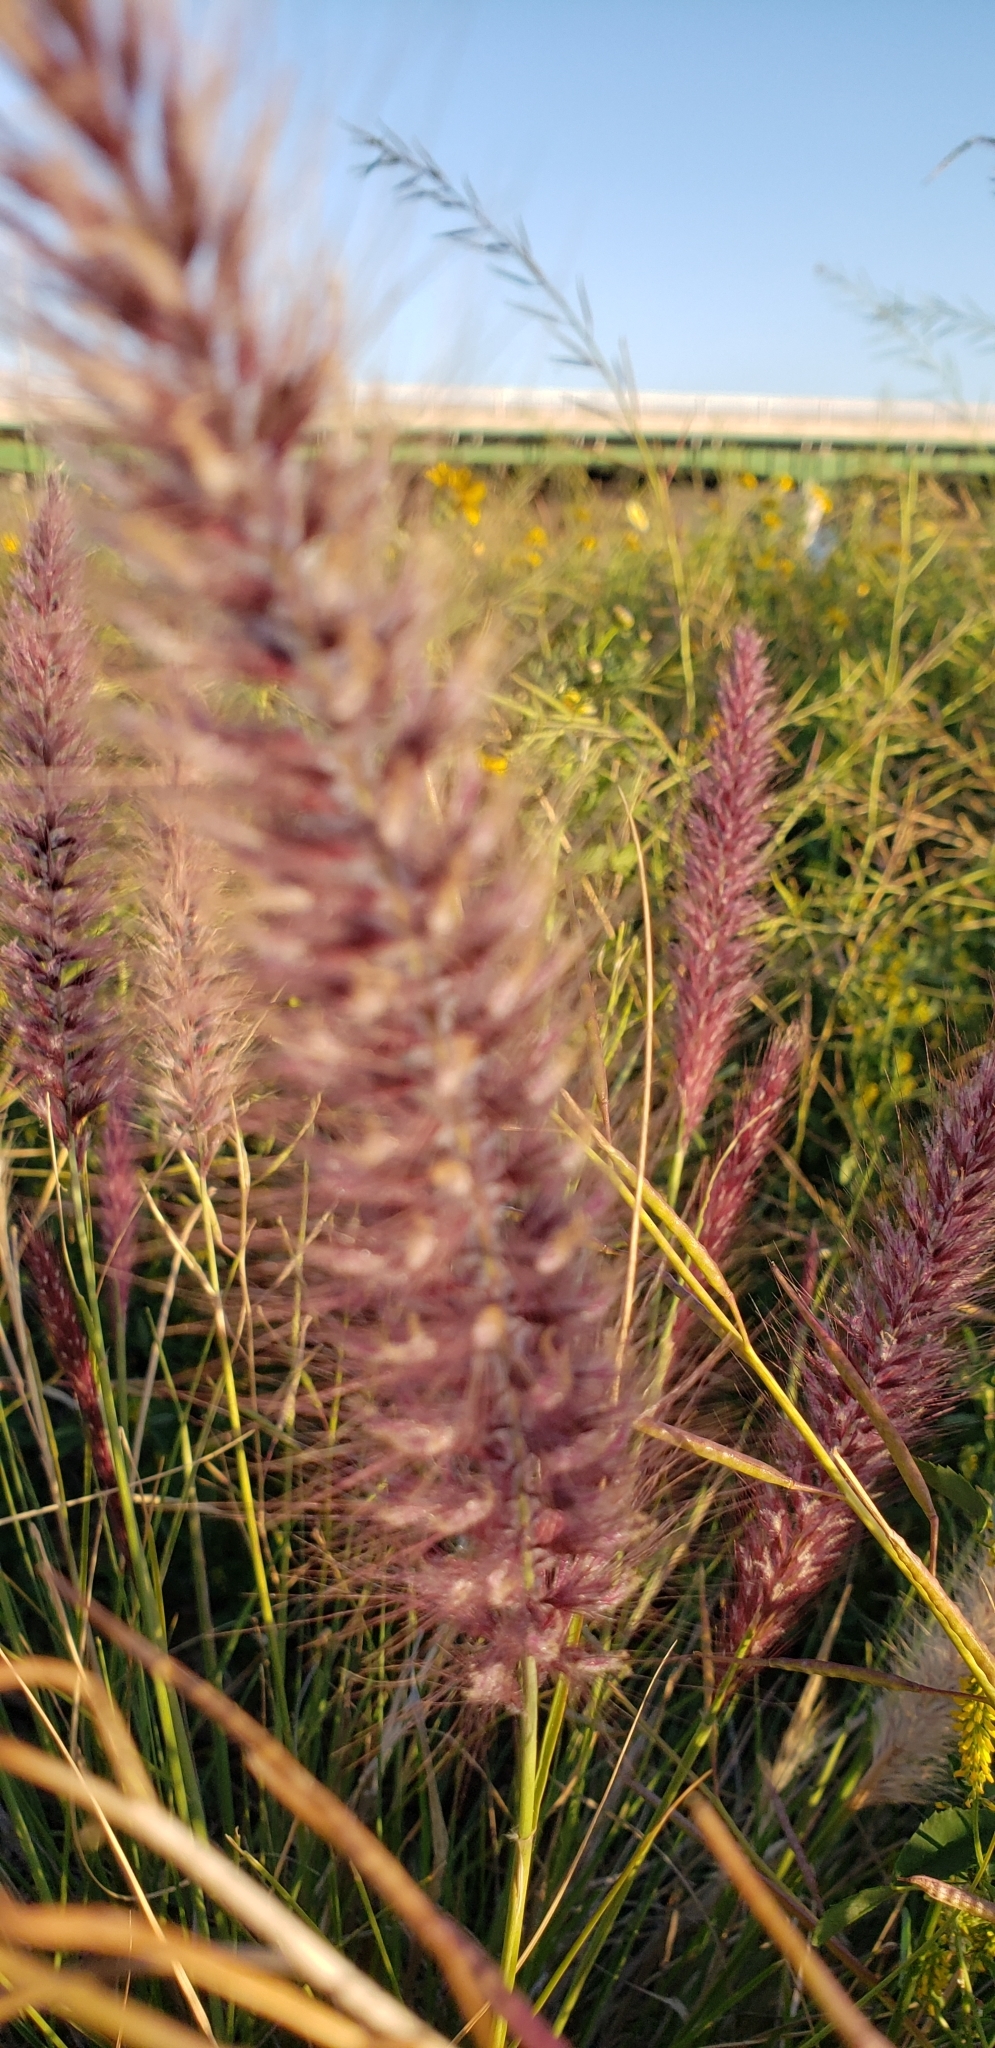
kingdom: Plantae
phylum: Tracheophyta
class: Liliopsida
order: Poales
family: Poaceae
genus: Cenchrus
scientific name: Cenchrus setaceus
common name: Crimson fountaingrass
